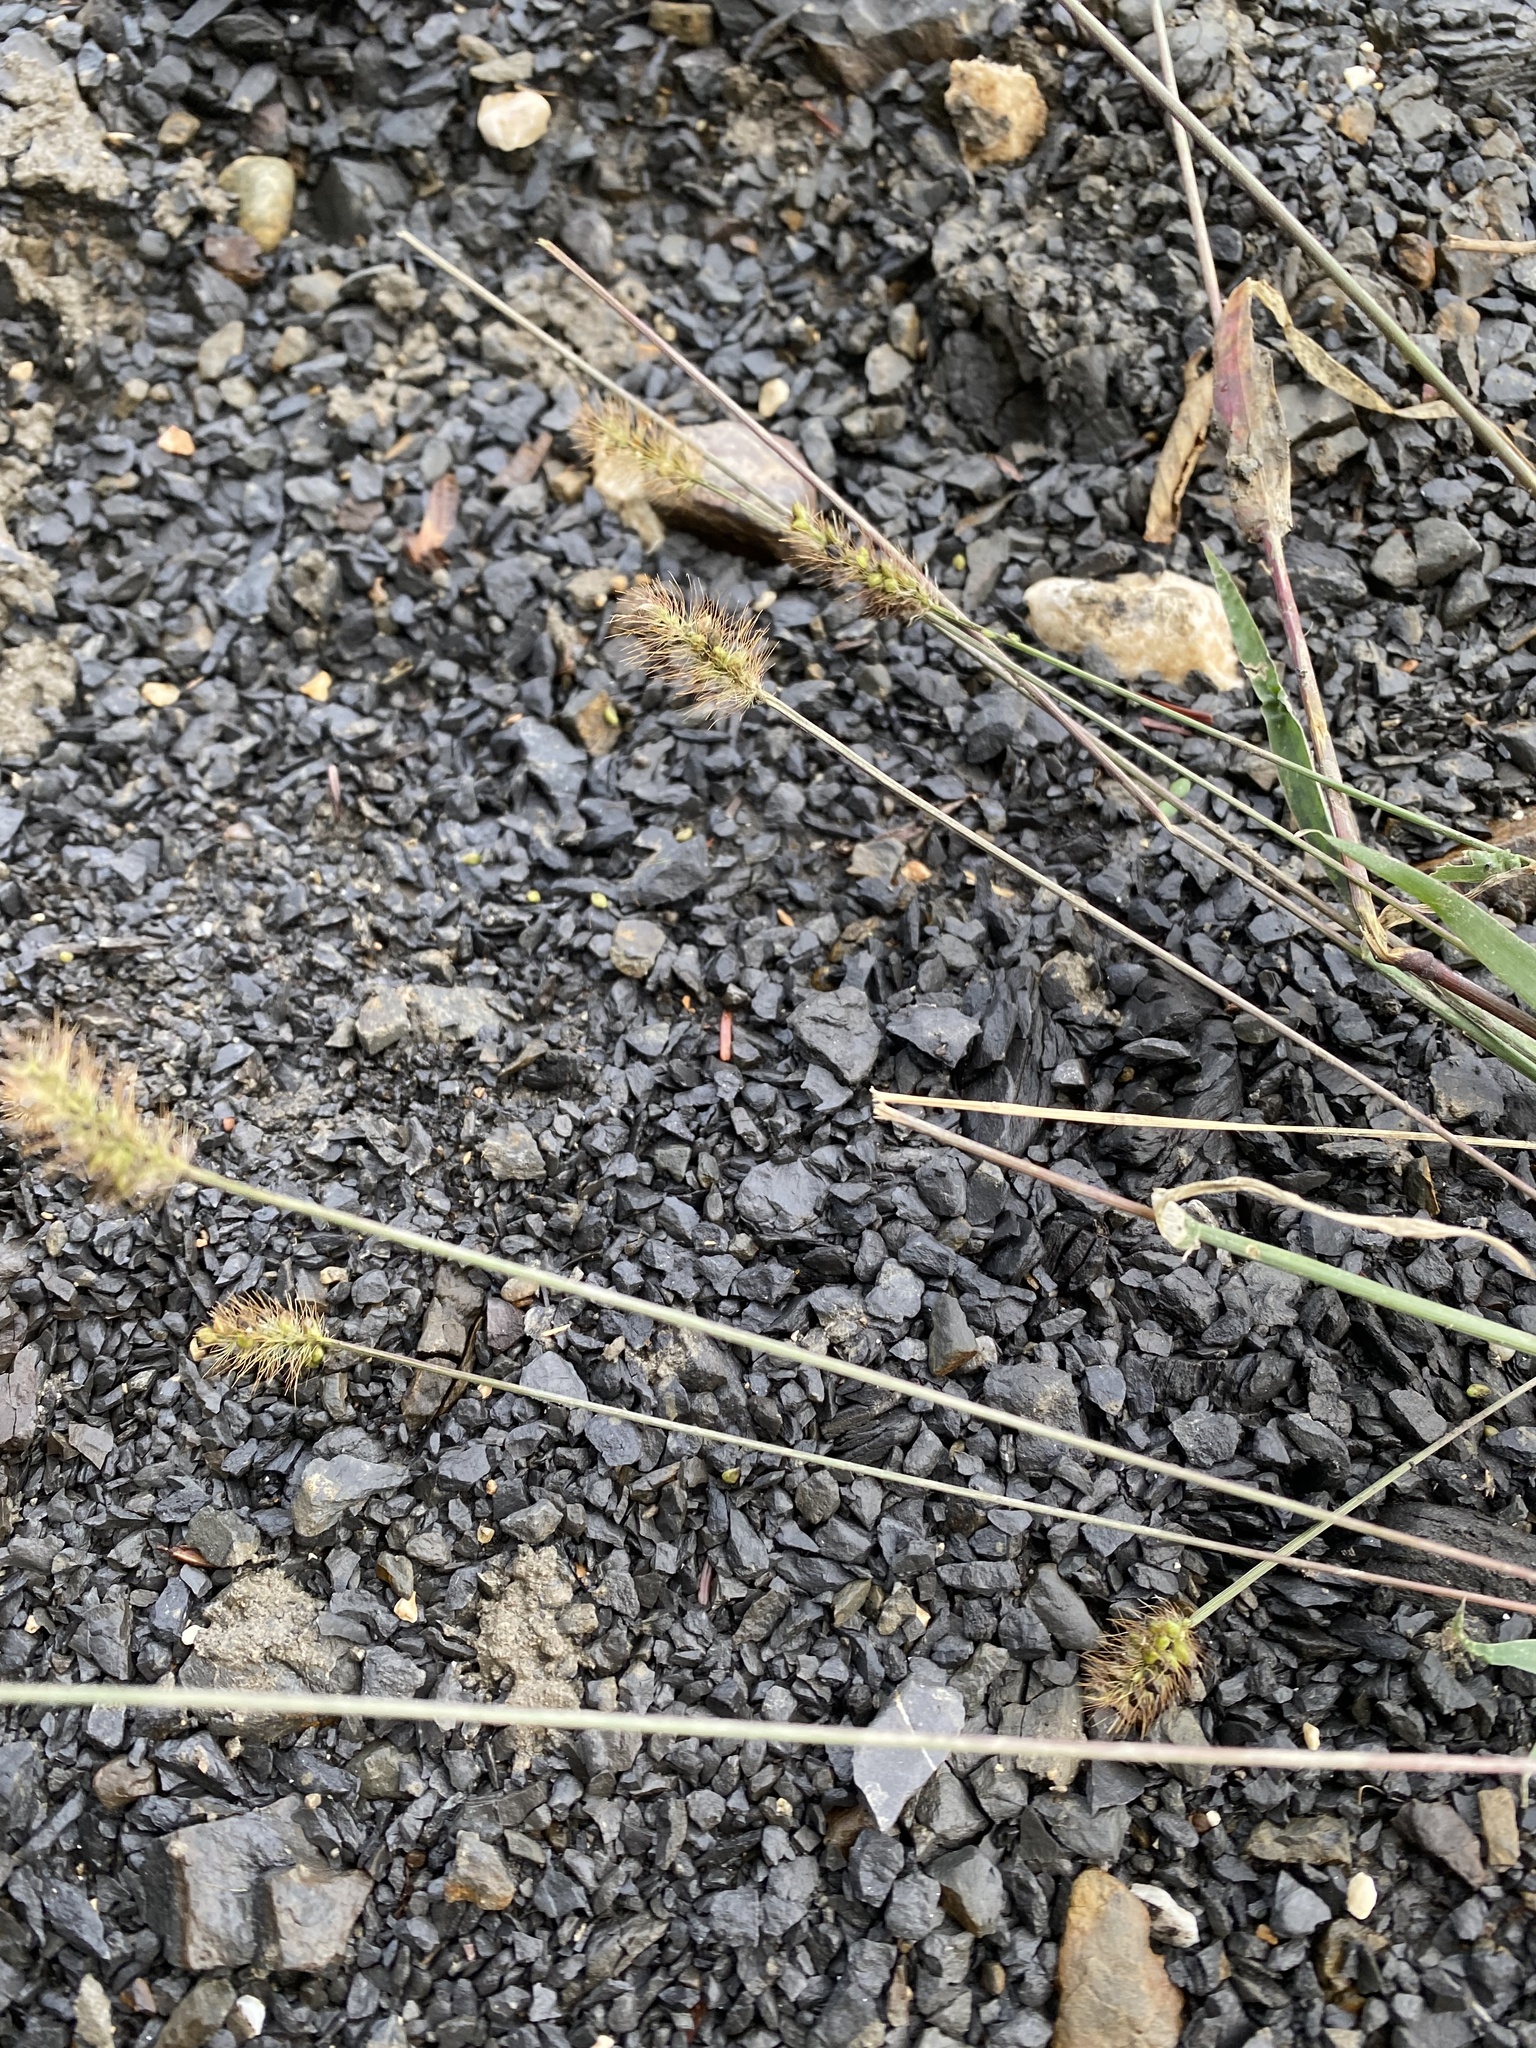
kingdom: Plantae
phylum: Tracheophyta
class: Liliopsida
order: Poales
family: Poaceae
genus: Setaria
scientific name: Setaria pumila
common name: Yellow bristle-grass
